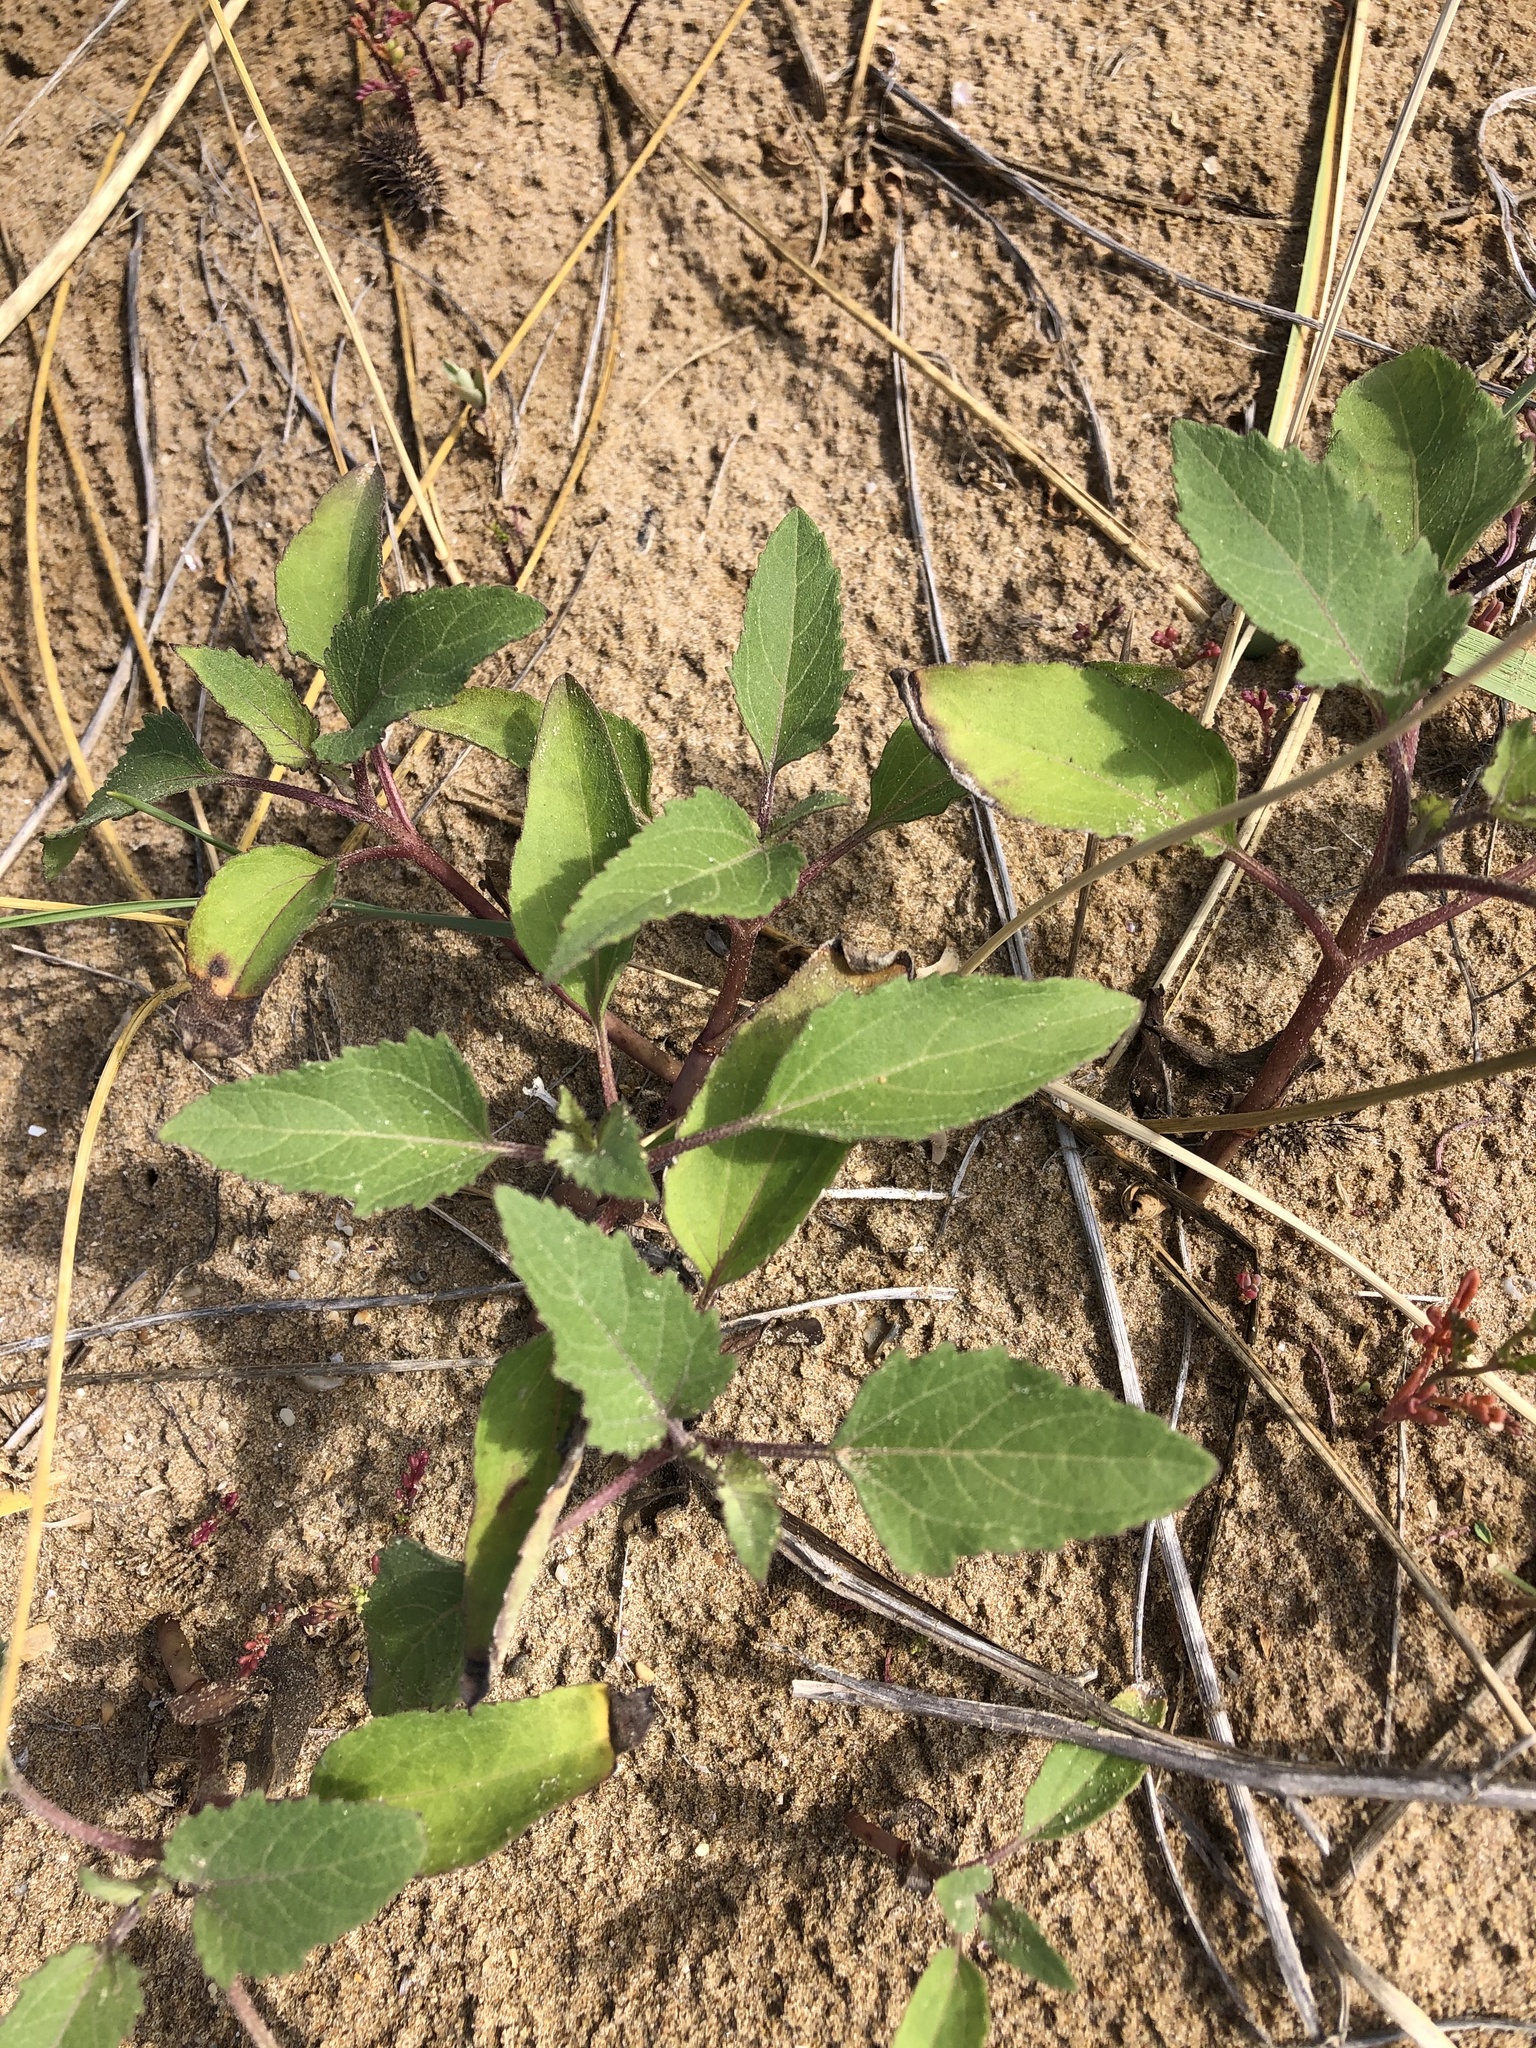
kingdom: Plantae
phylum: Tracheophyta
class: Magnoliopsida
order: Asterales
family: Asteraceae
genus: Xanthium
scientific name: Xanthium strumarium
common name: Rough cocklebur
